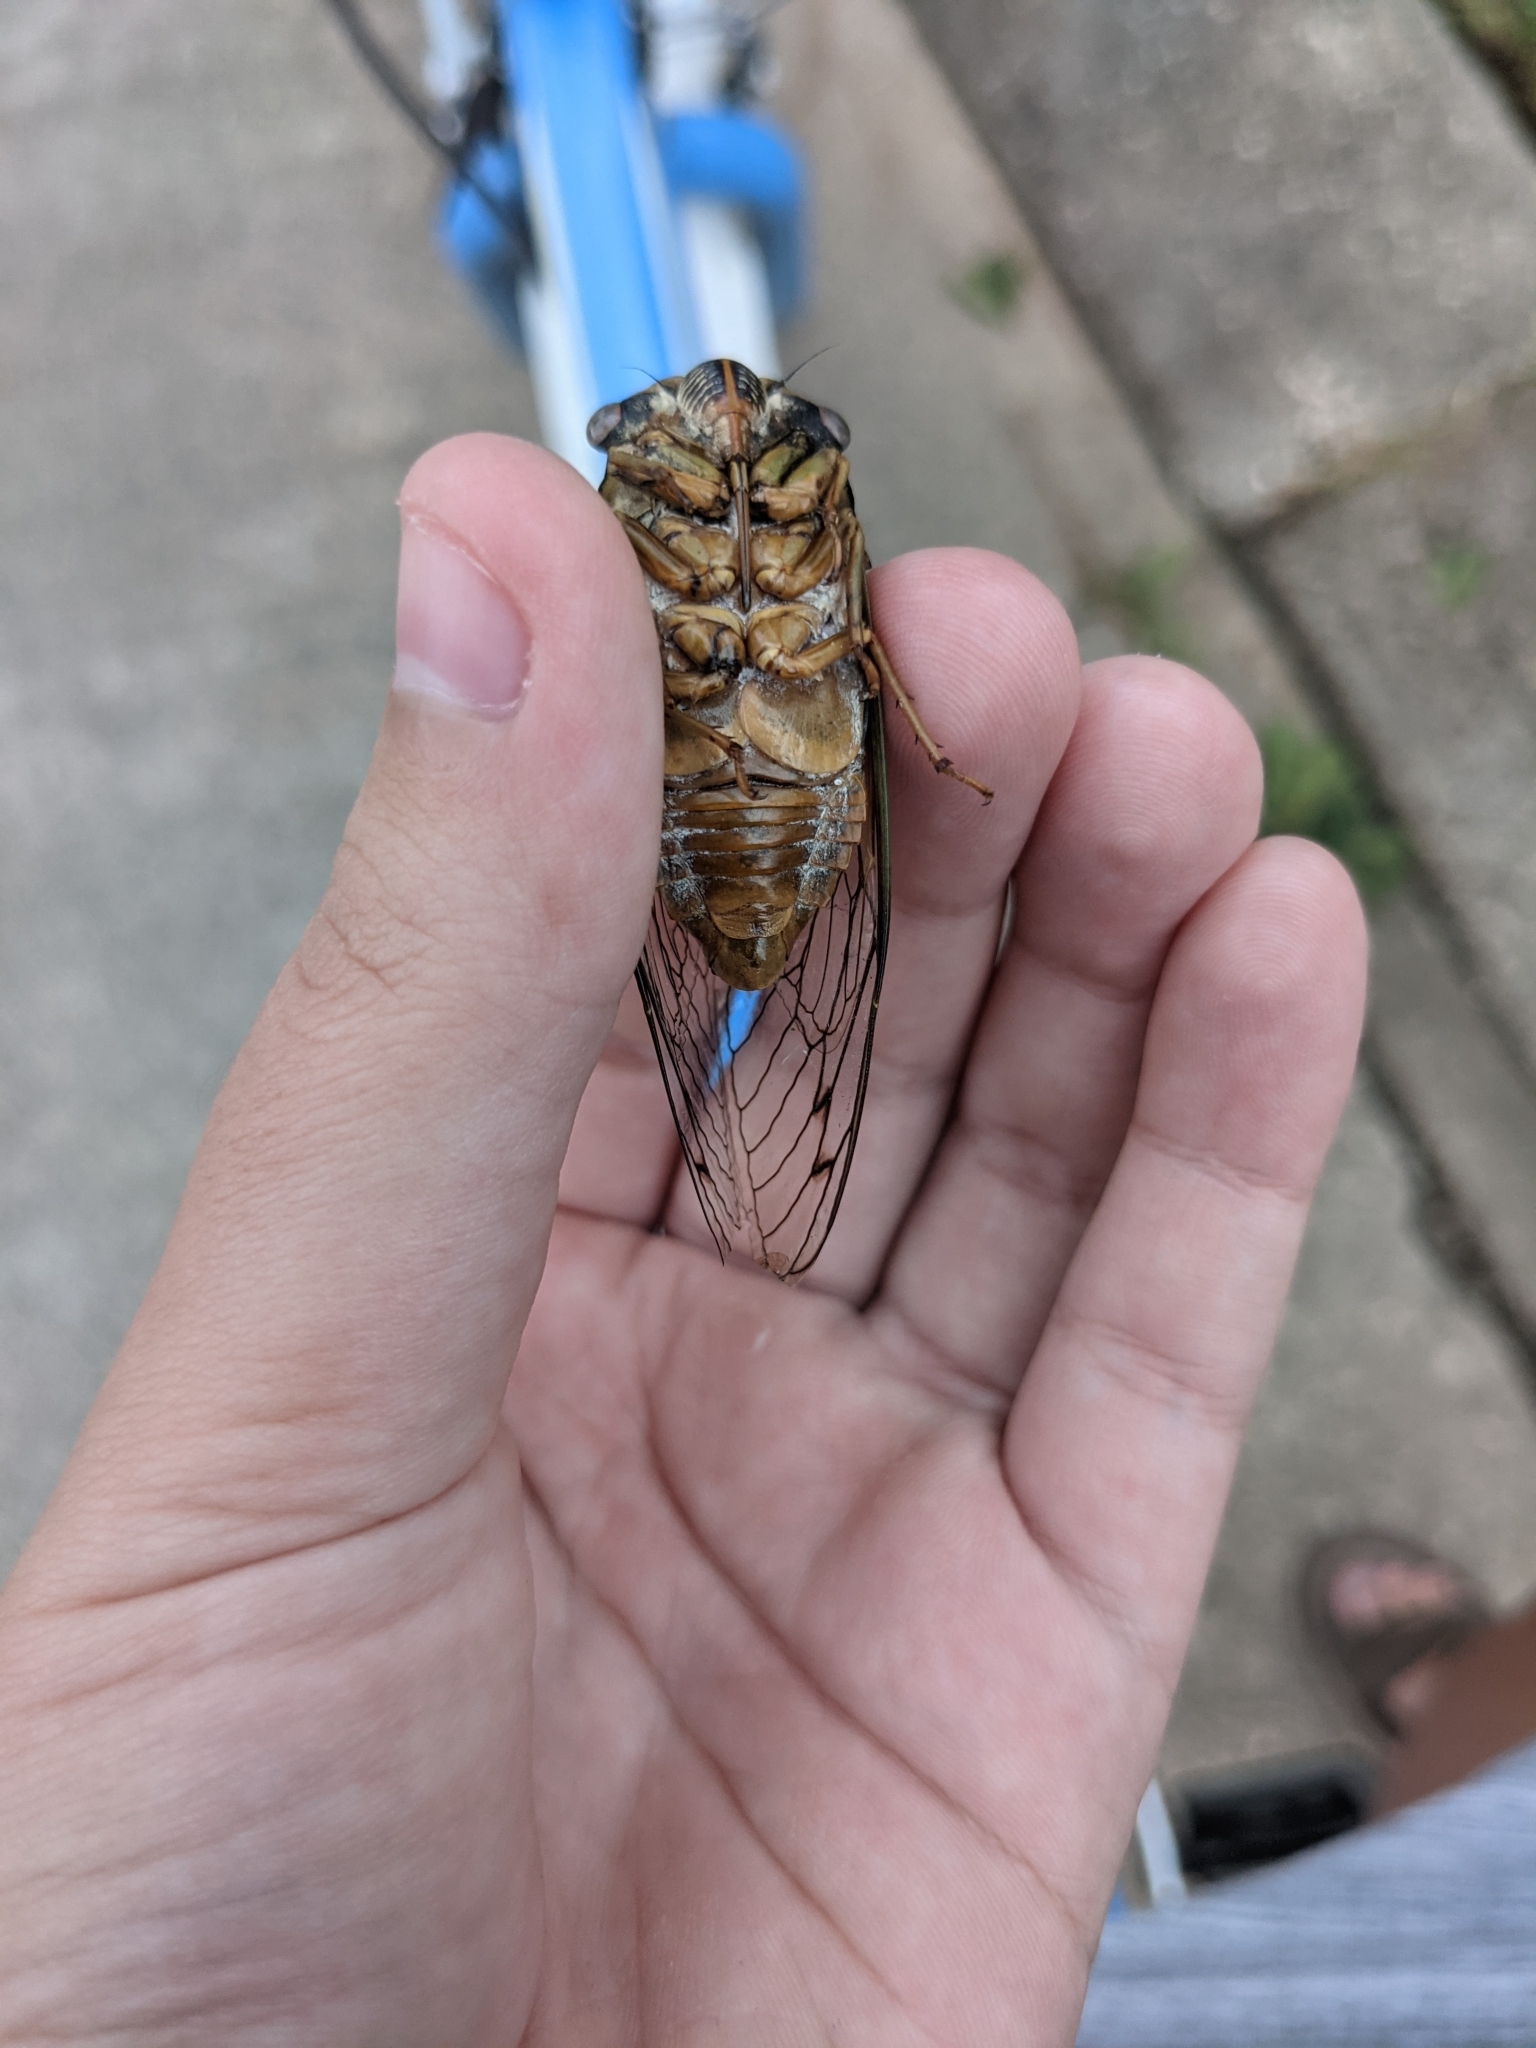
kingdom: Animalia
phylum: Arthropoda
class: Insecta
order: Hemiptera
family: Cicadidae
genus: Megatibicen
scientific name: Megatibicen resh
